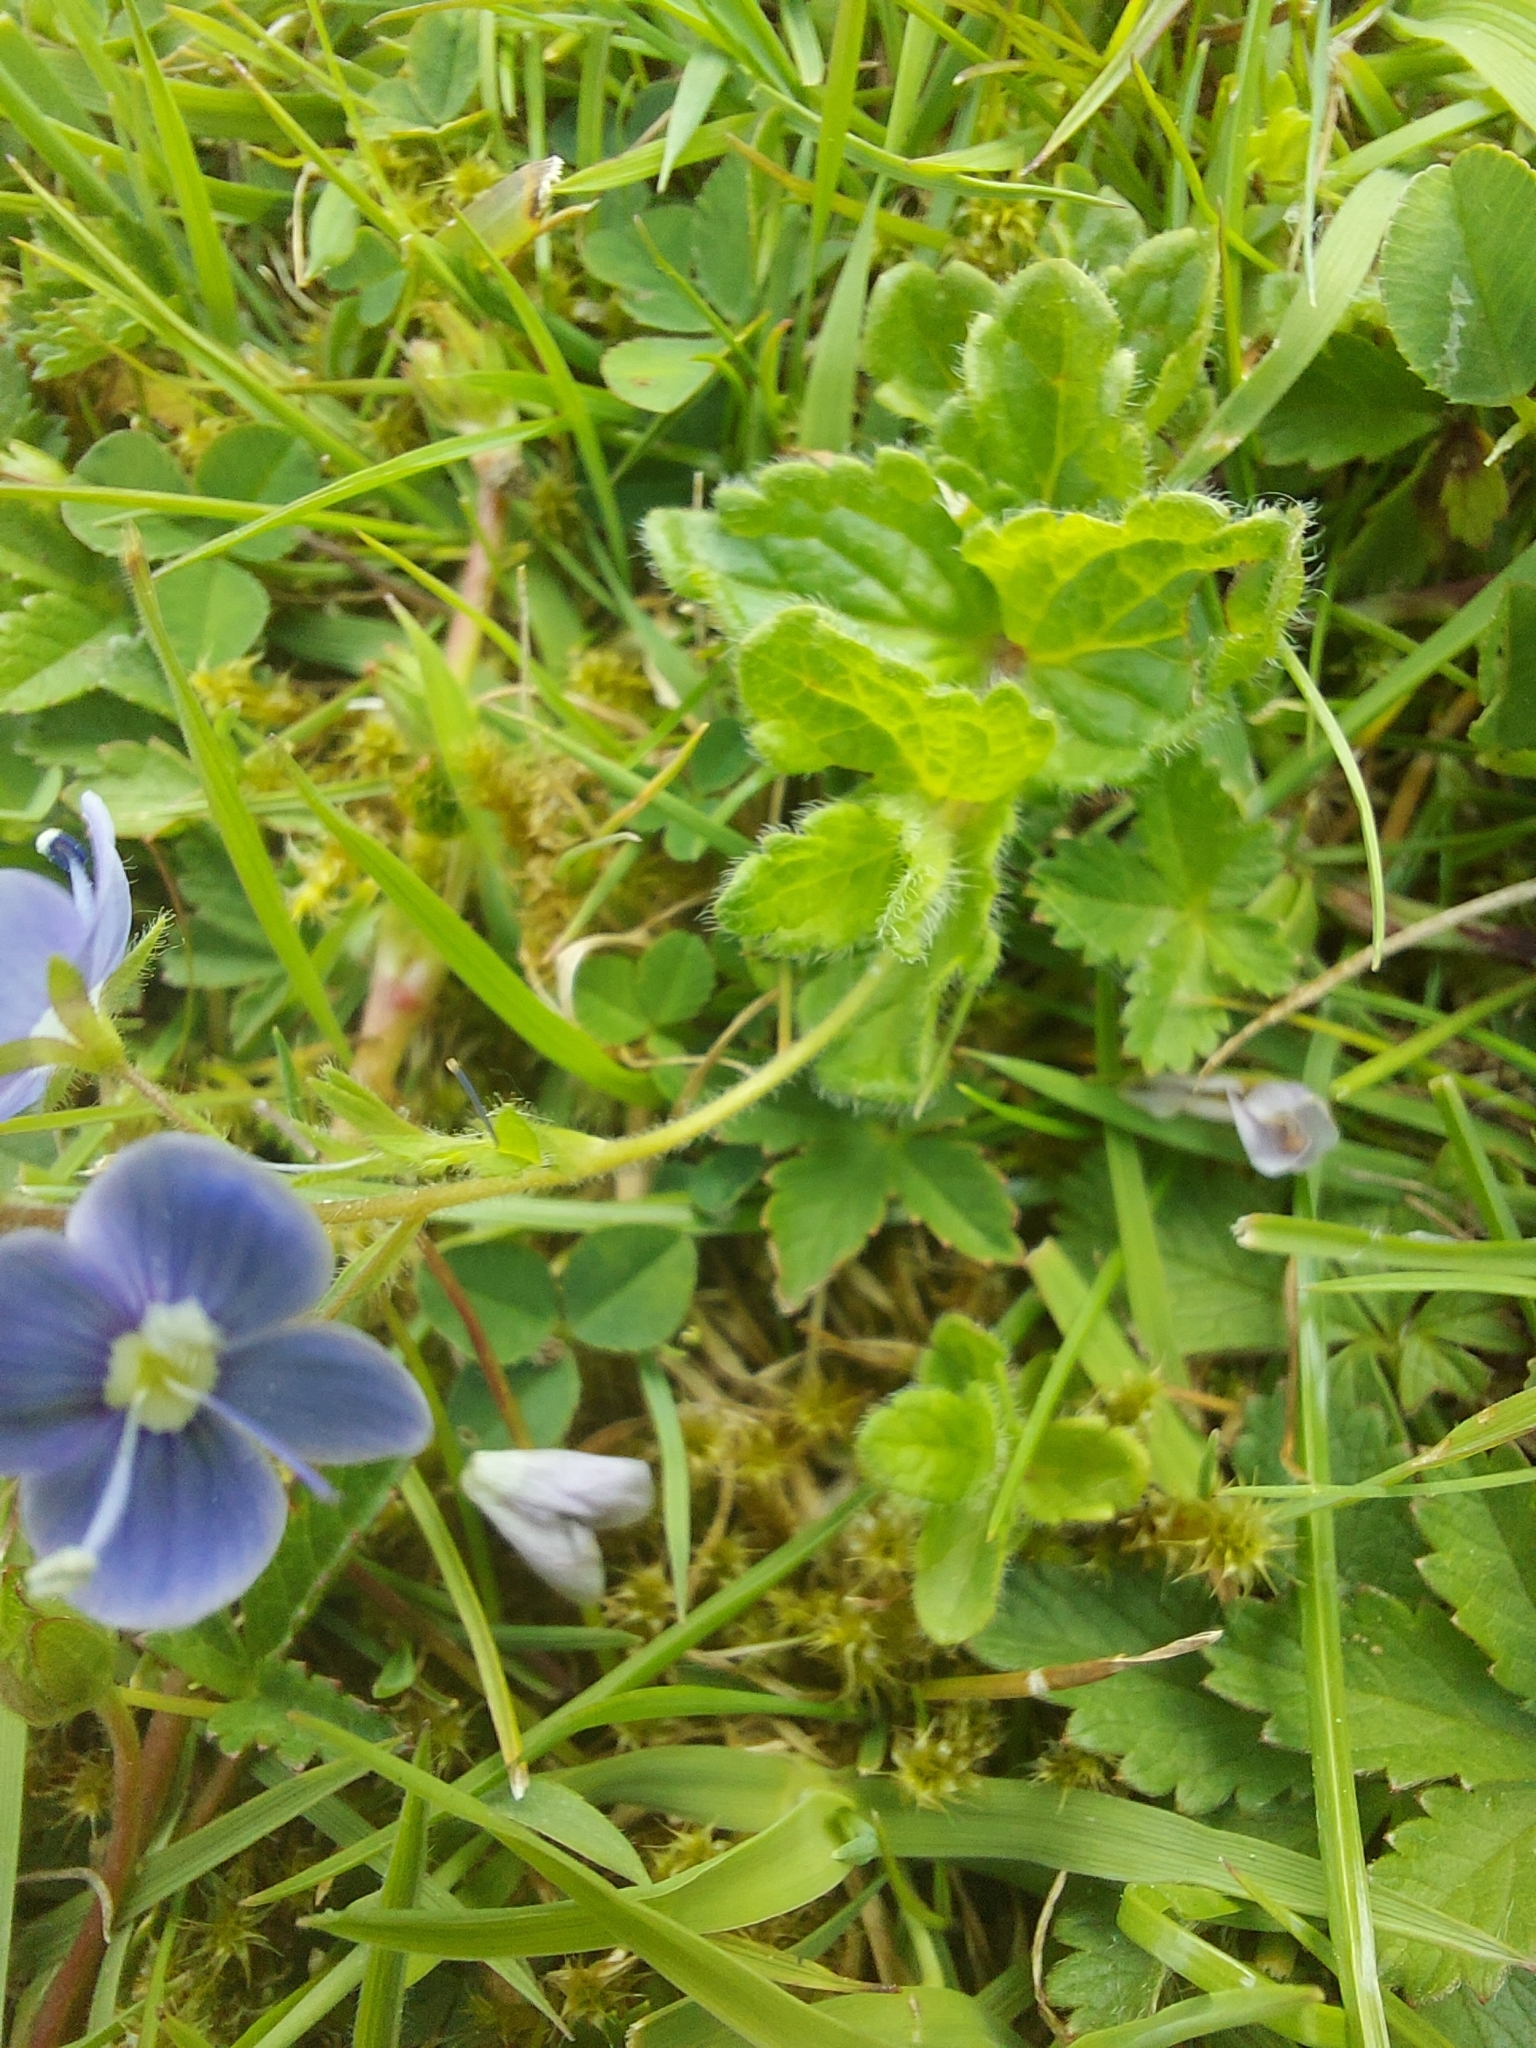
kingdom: Plantae
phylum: Tracheophyta
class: Magnoliopsida
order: Lamiales
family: Plantaginaceae
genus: Veronica
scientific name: Veronica chamaedrys
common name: Germander speedwell
